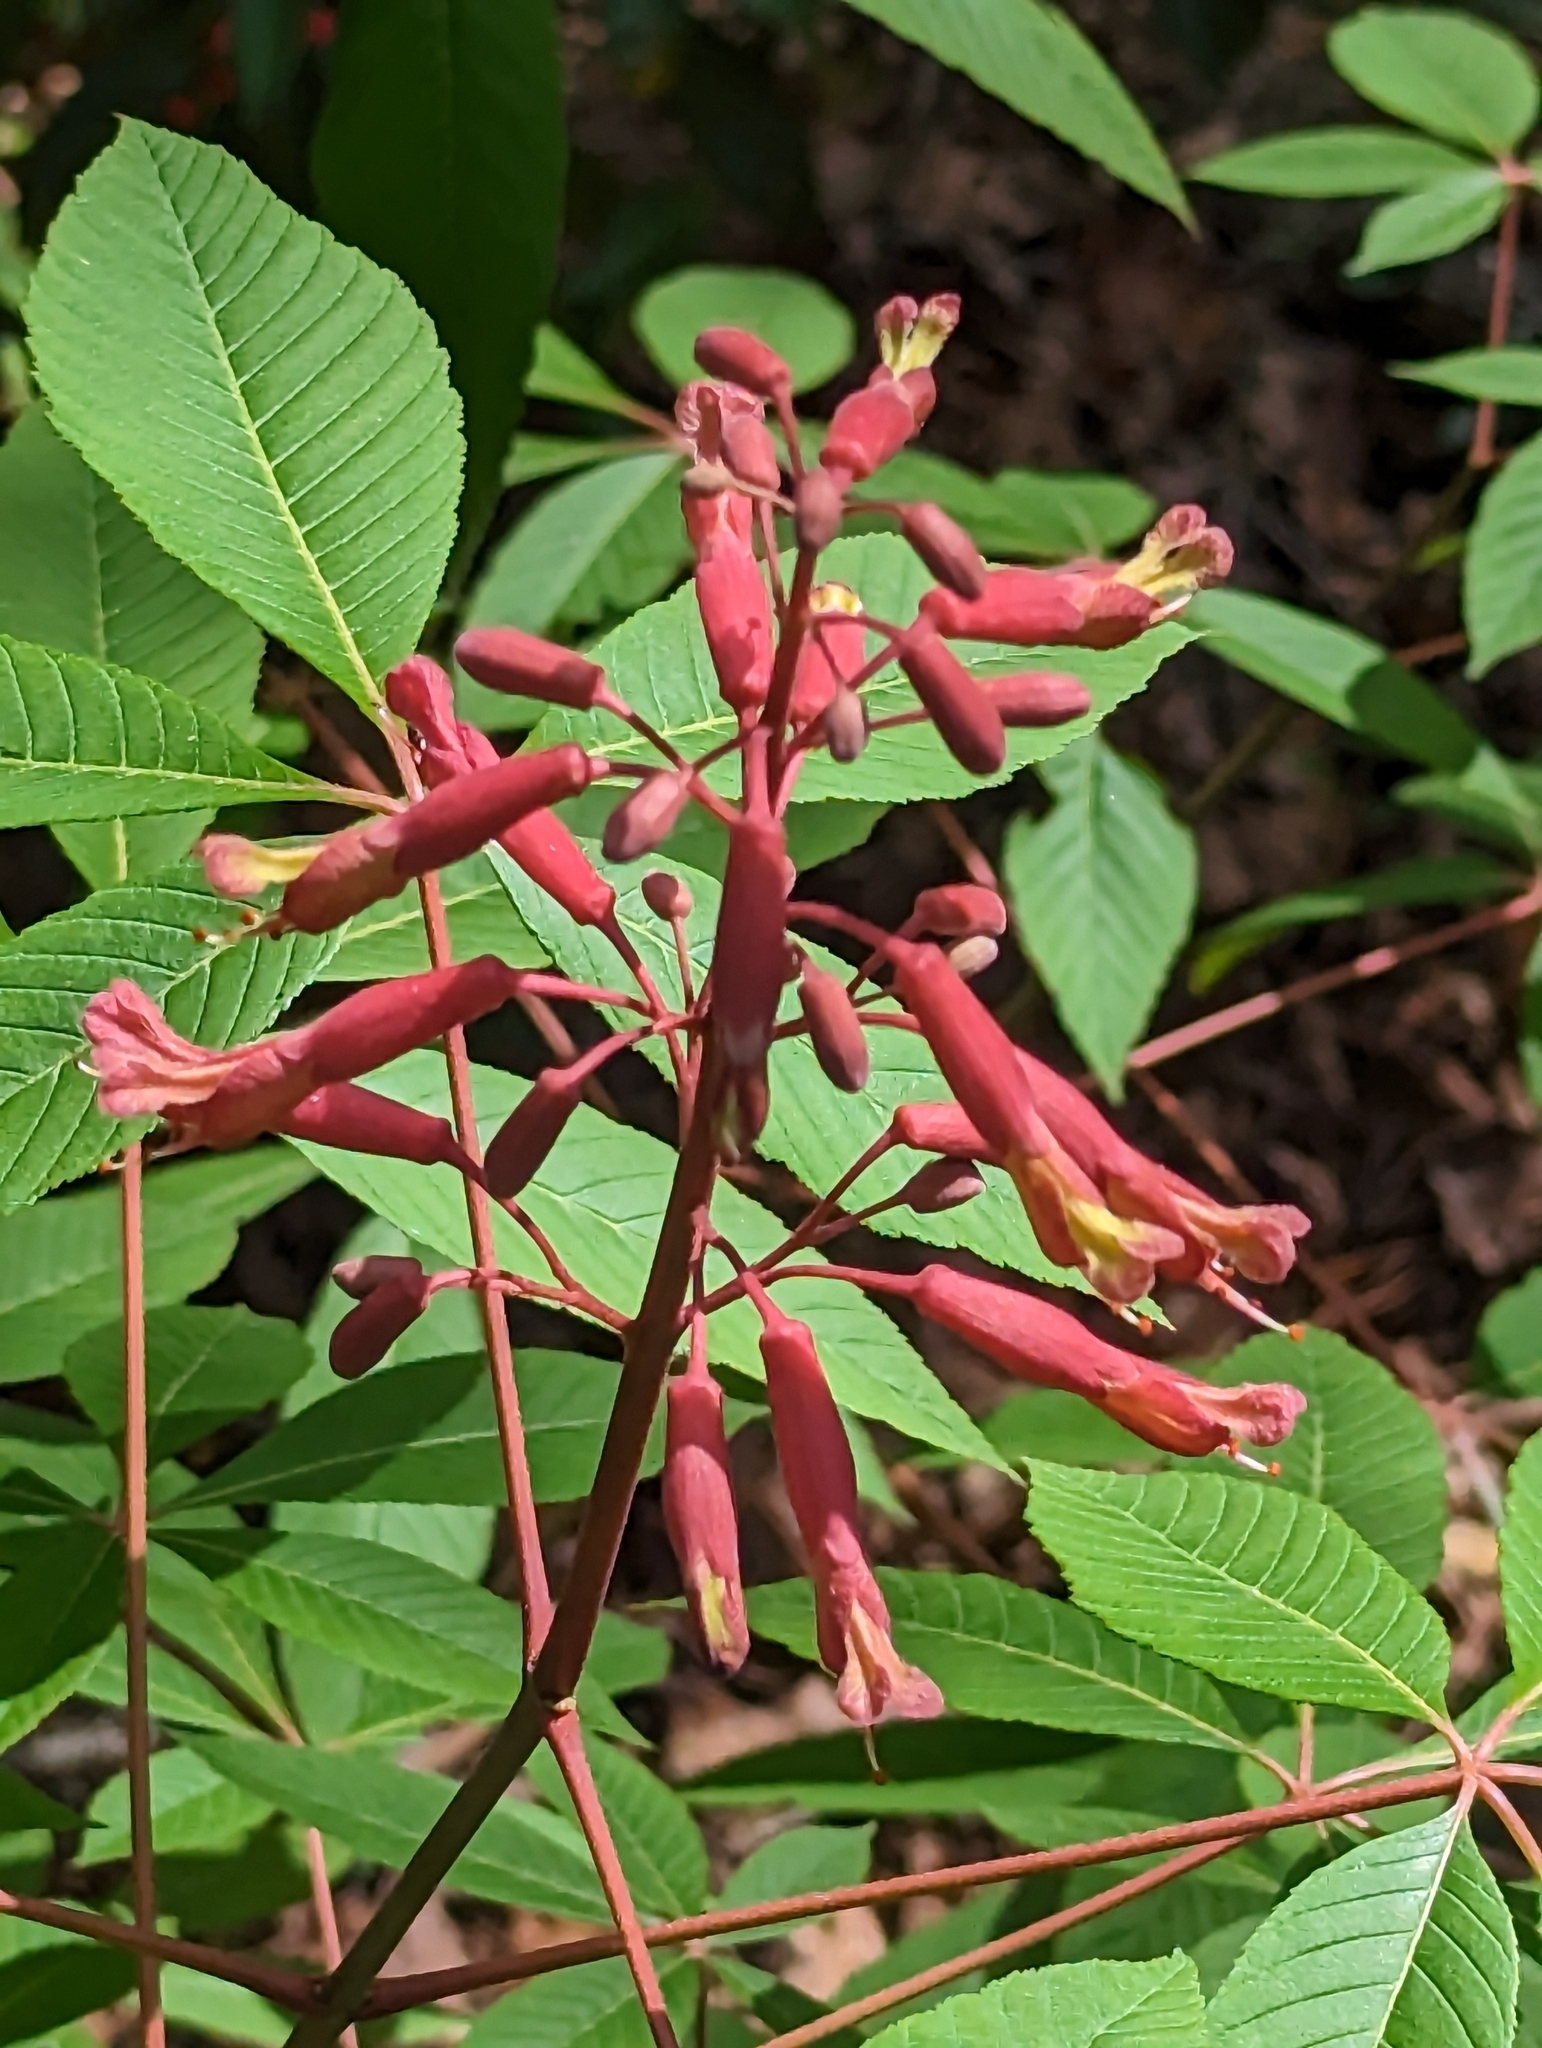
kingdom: Plantae
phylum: Tracheophyta
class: Magnoliopsida
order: Sapindales
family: Sapindaceae
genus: Aesculus
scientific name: Aesculus pavia
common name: Red buckeye
